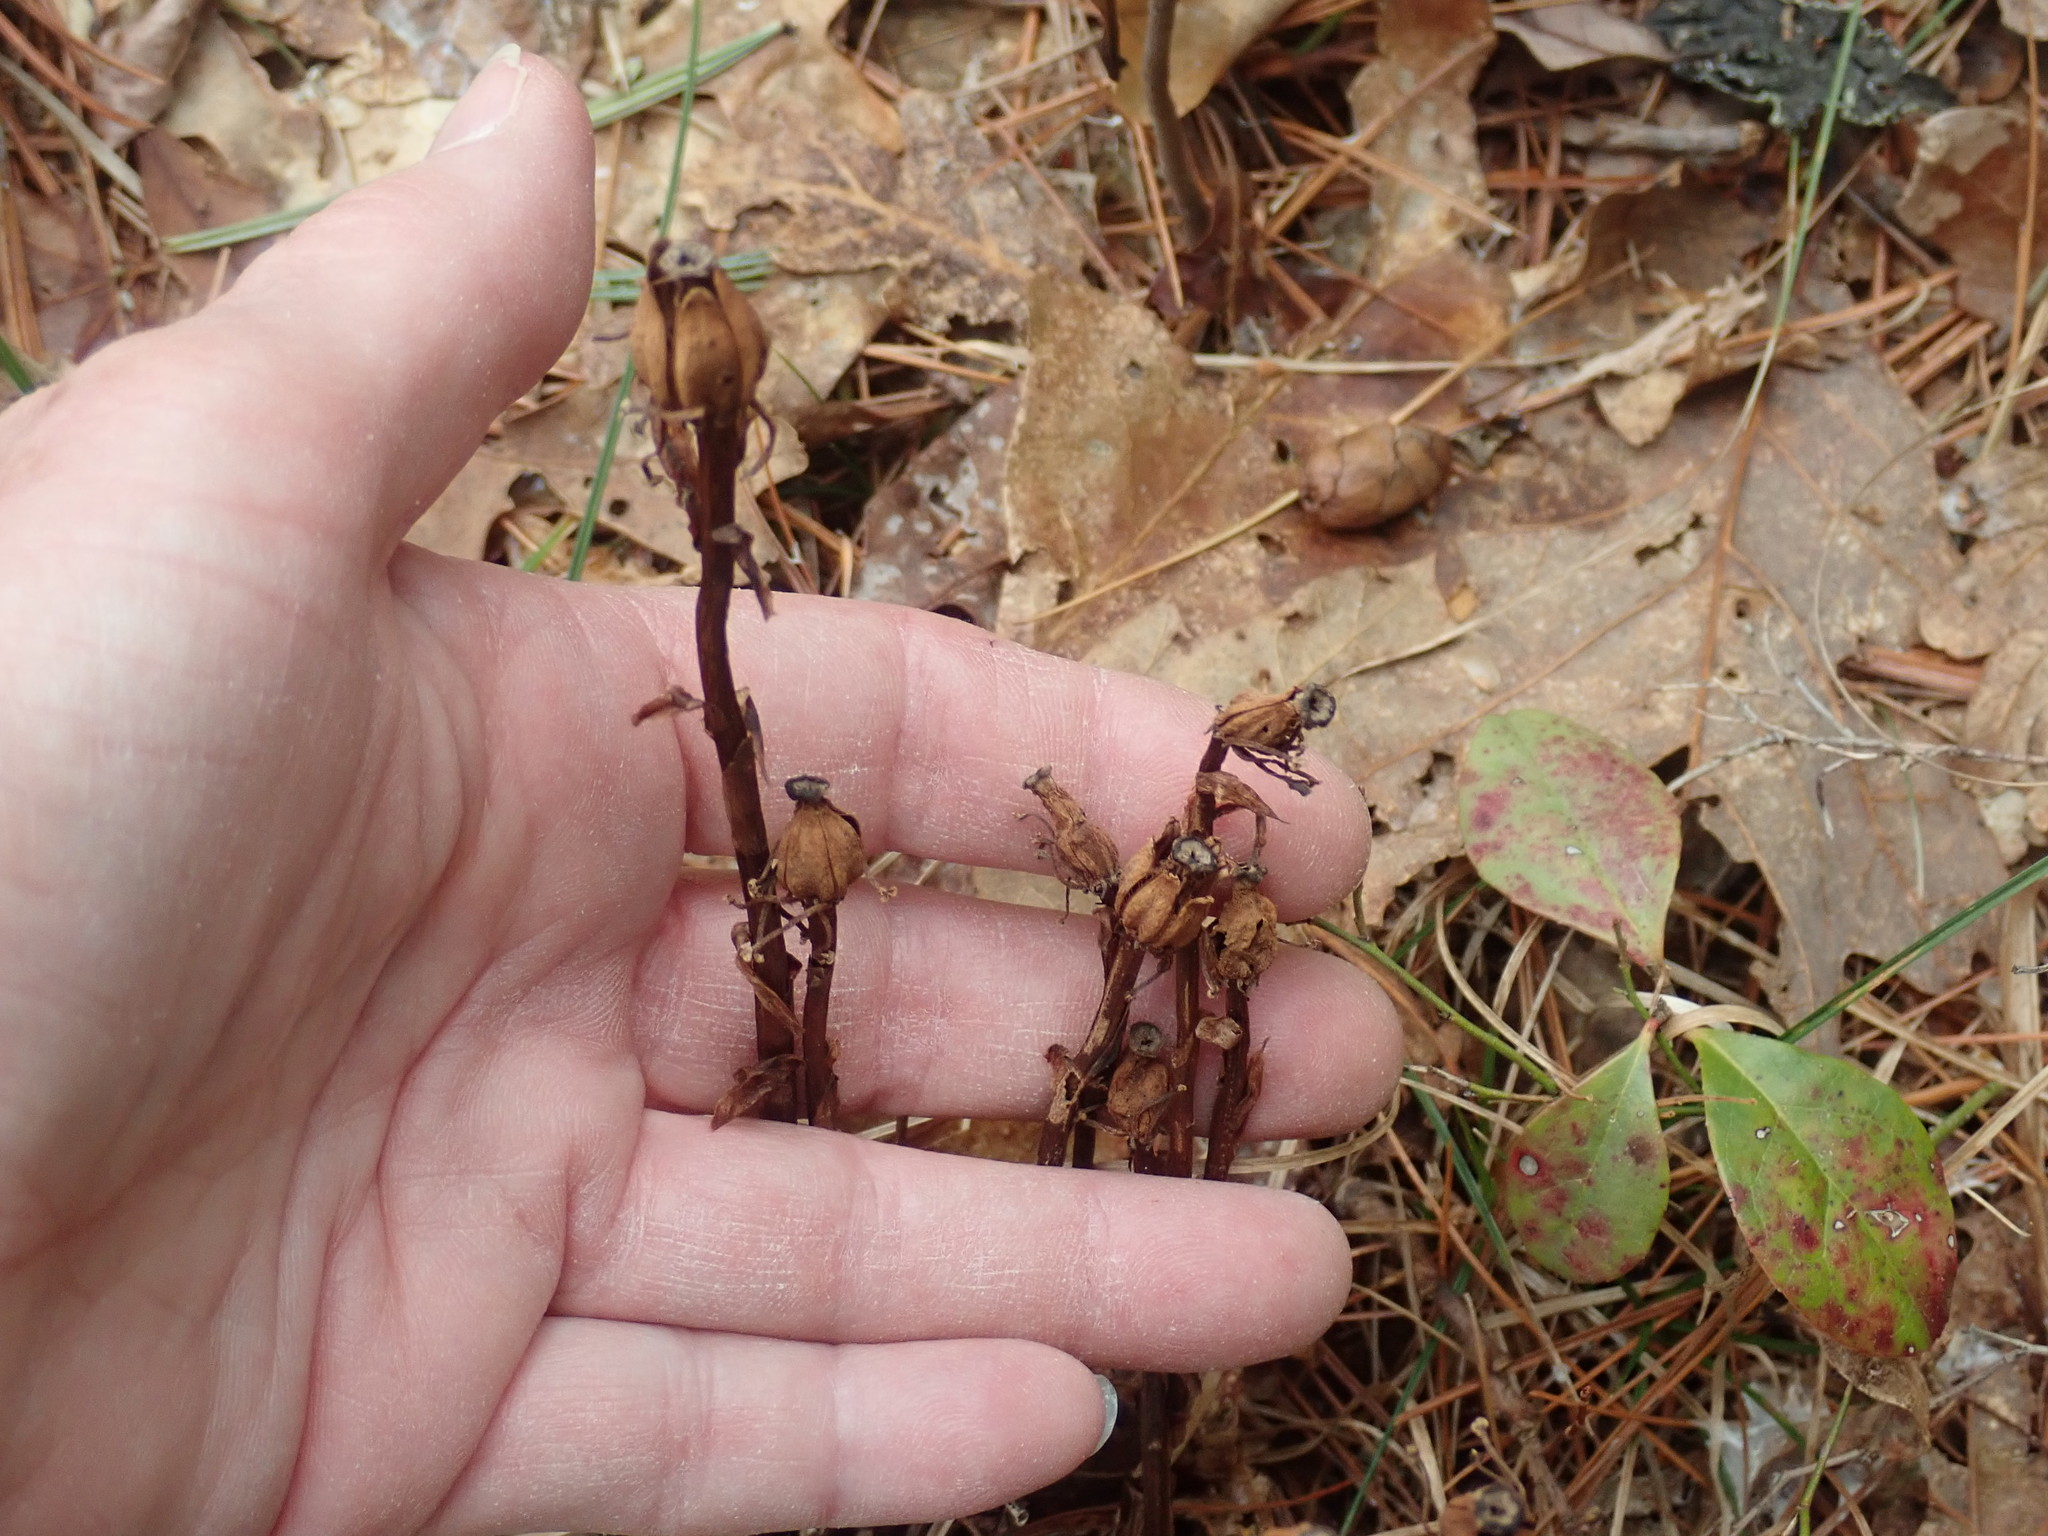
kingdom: Plantae
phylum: Tracheophyta
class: Magnoliopsida
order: Ericales
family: Ericaceae
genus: Monotropa
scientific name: Monotropa uniflora
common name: Convulsion root
